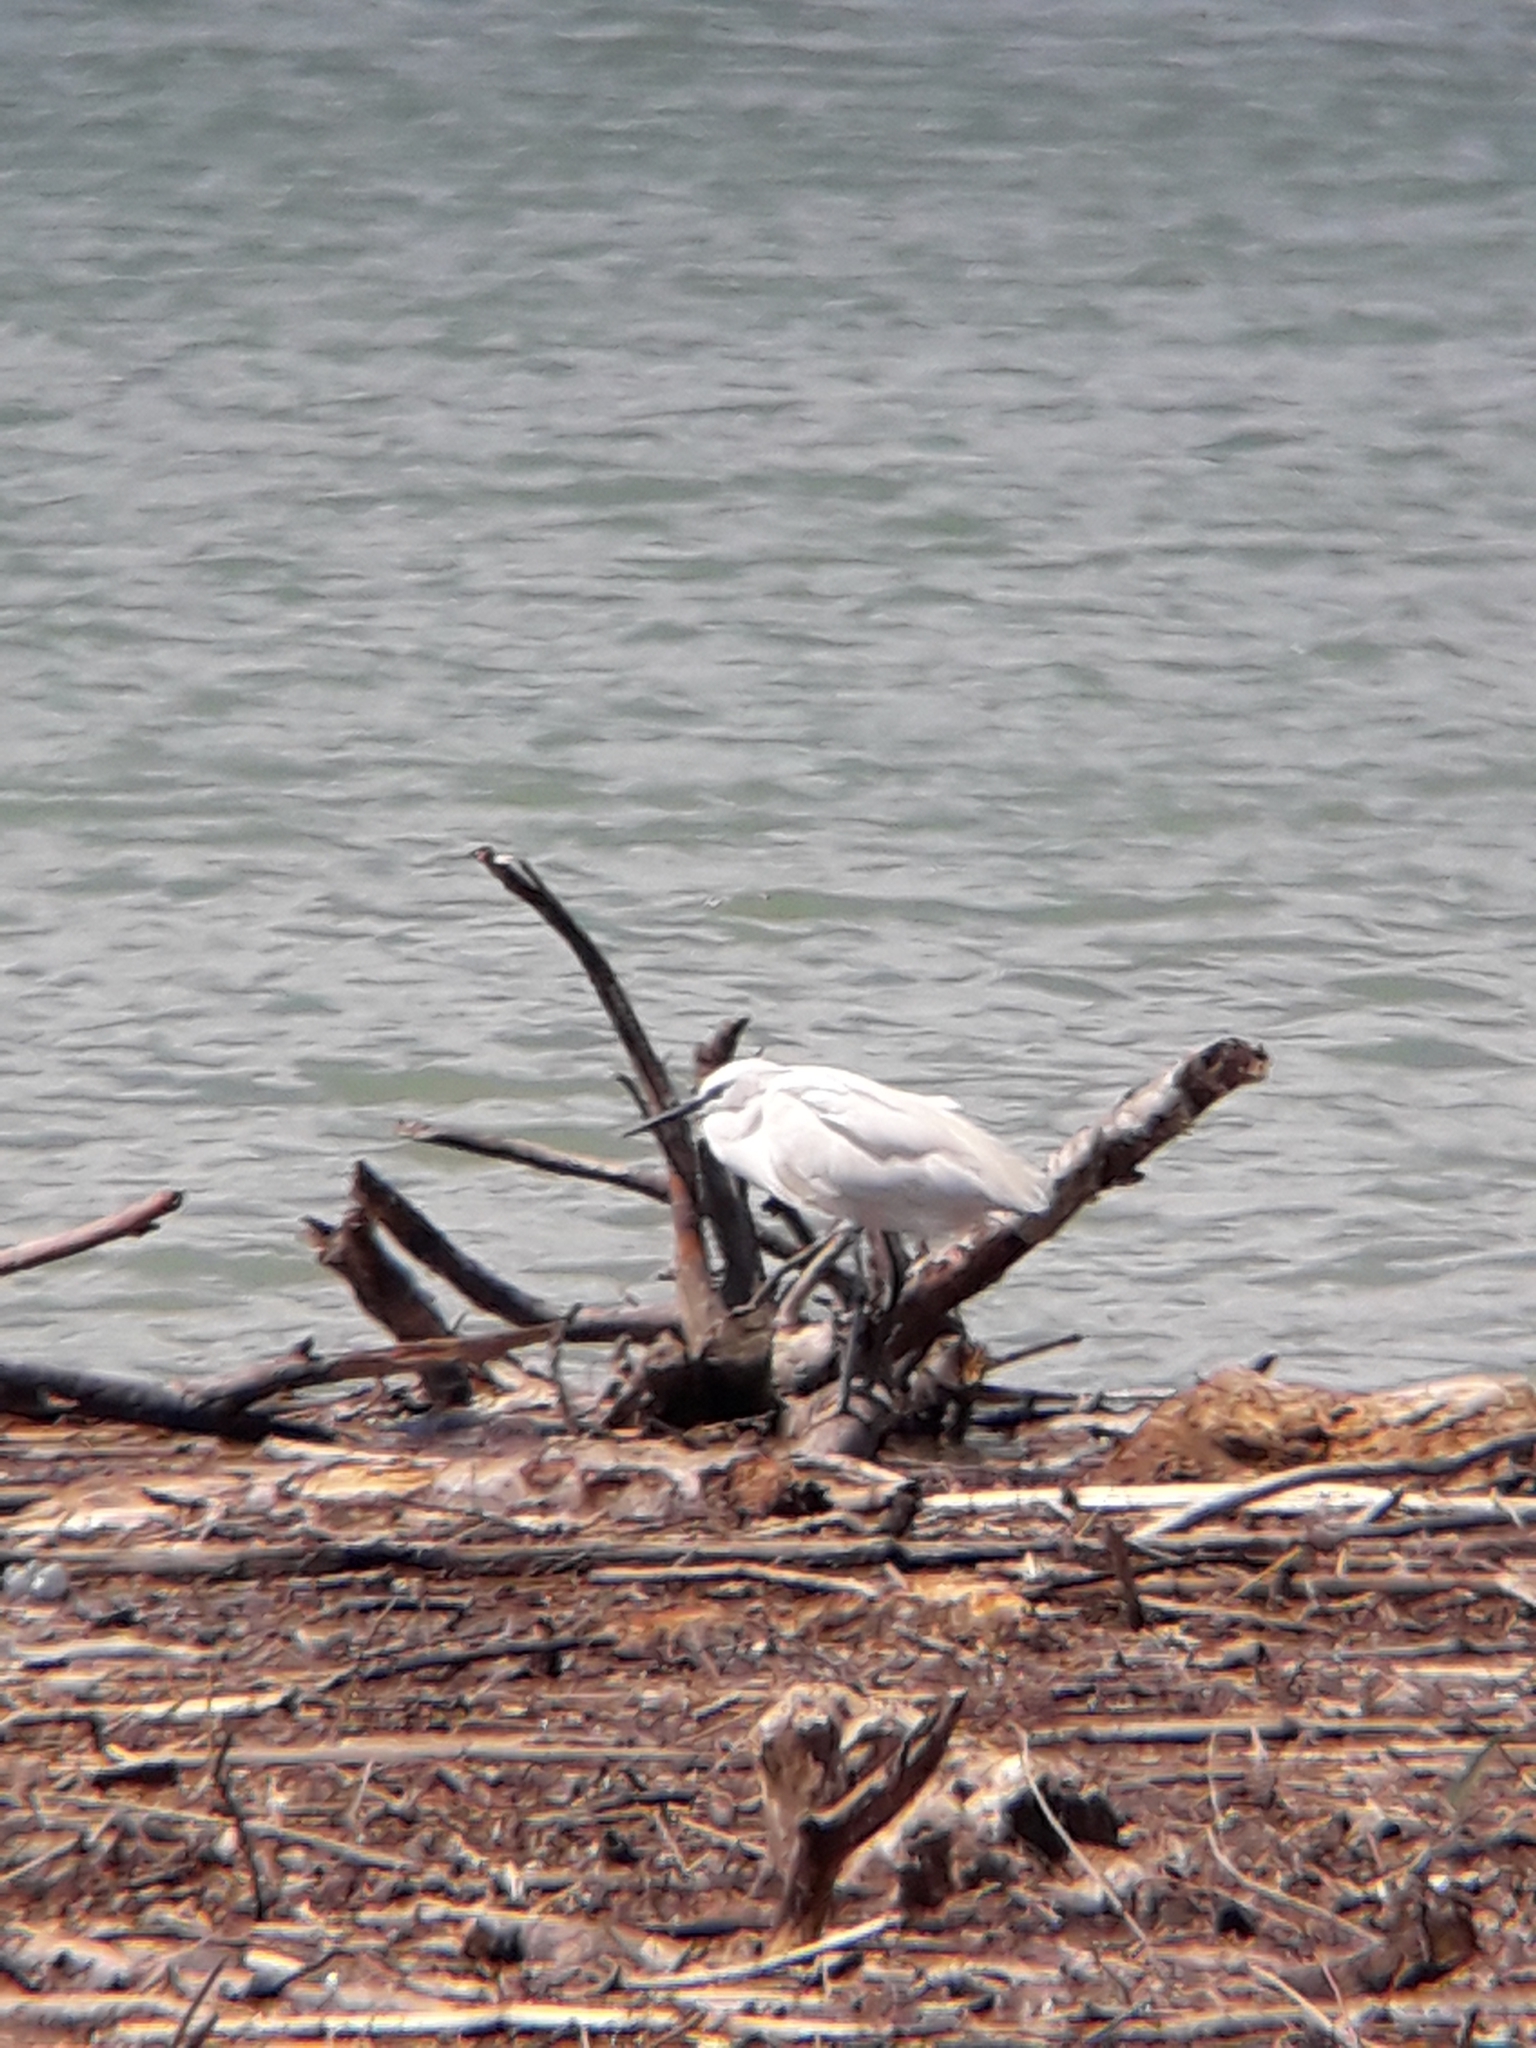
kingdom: Animalia
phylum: Chordata
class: Aves
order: Pelecaniformes
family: Ardeidae
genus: Egretta
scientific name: Egretta garzetta
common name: Little egret
